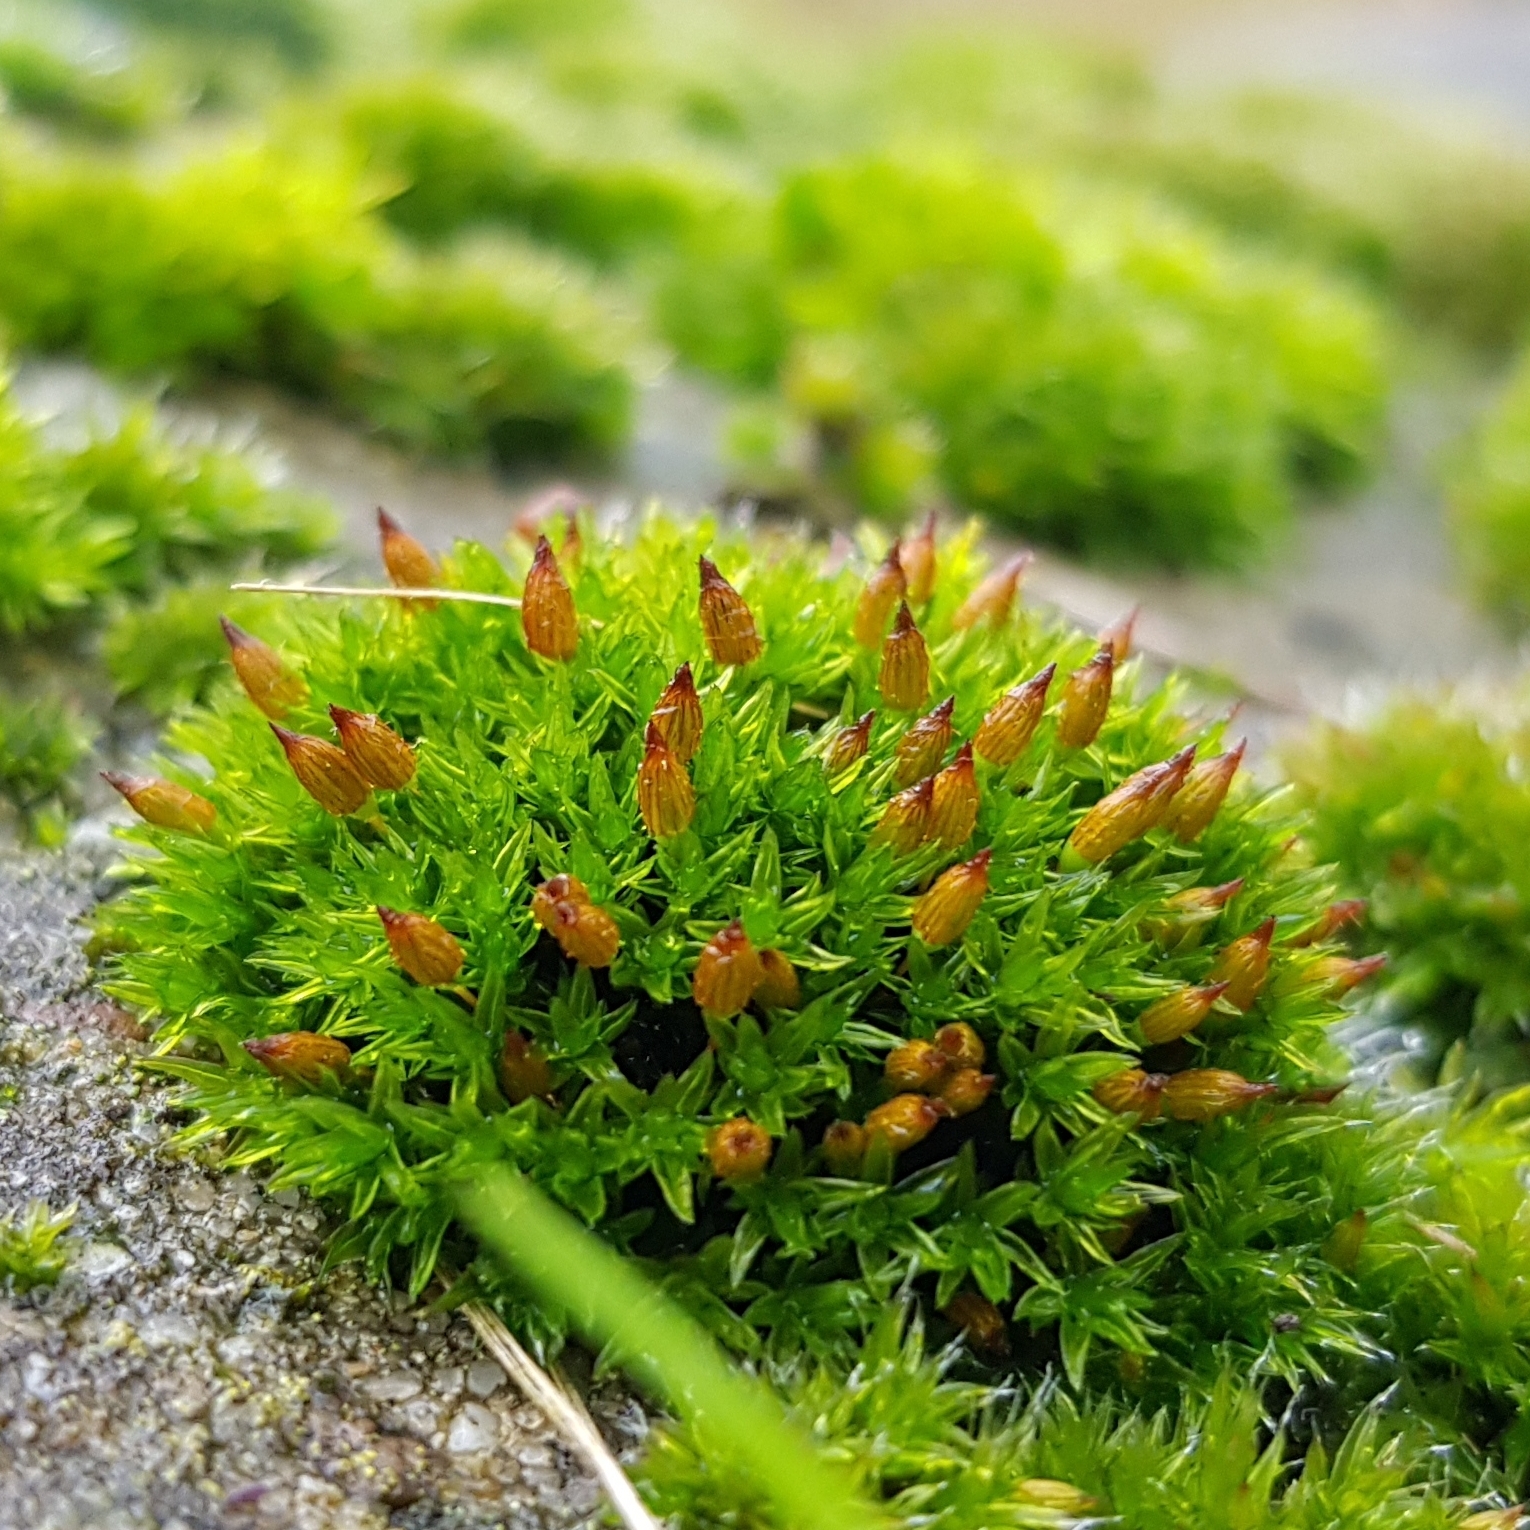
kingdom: Plantae
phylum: Bryophyta
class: Bryopsida
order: Orthotrichales
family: Orthotrichaceae
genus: Orthotrichum
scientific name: Orthotrichum anomalum
